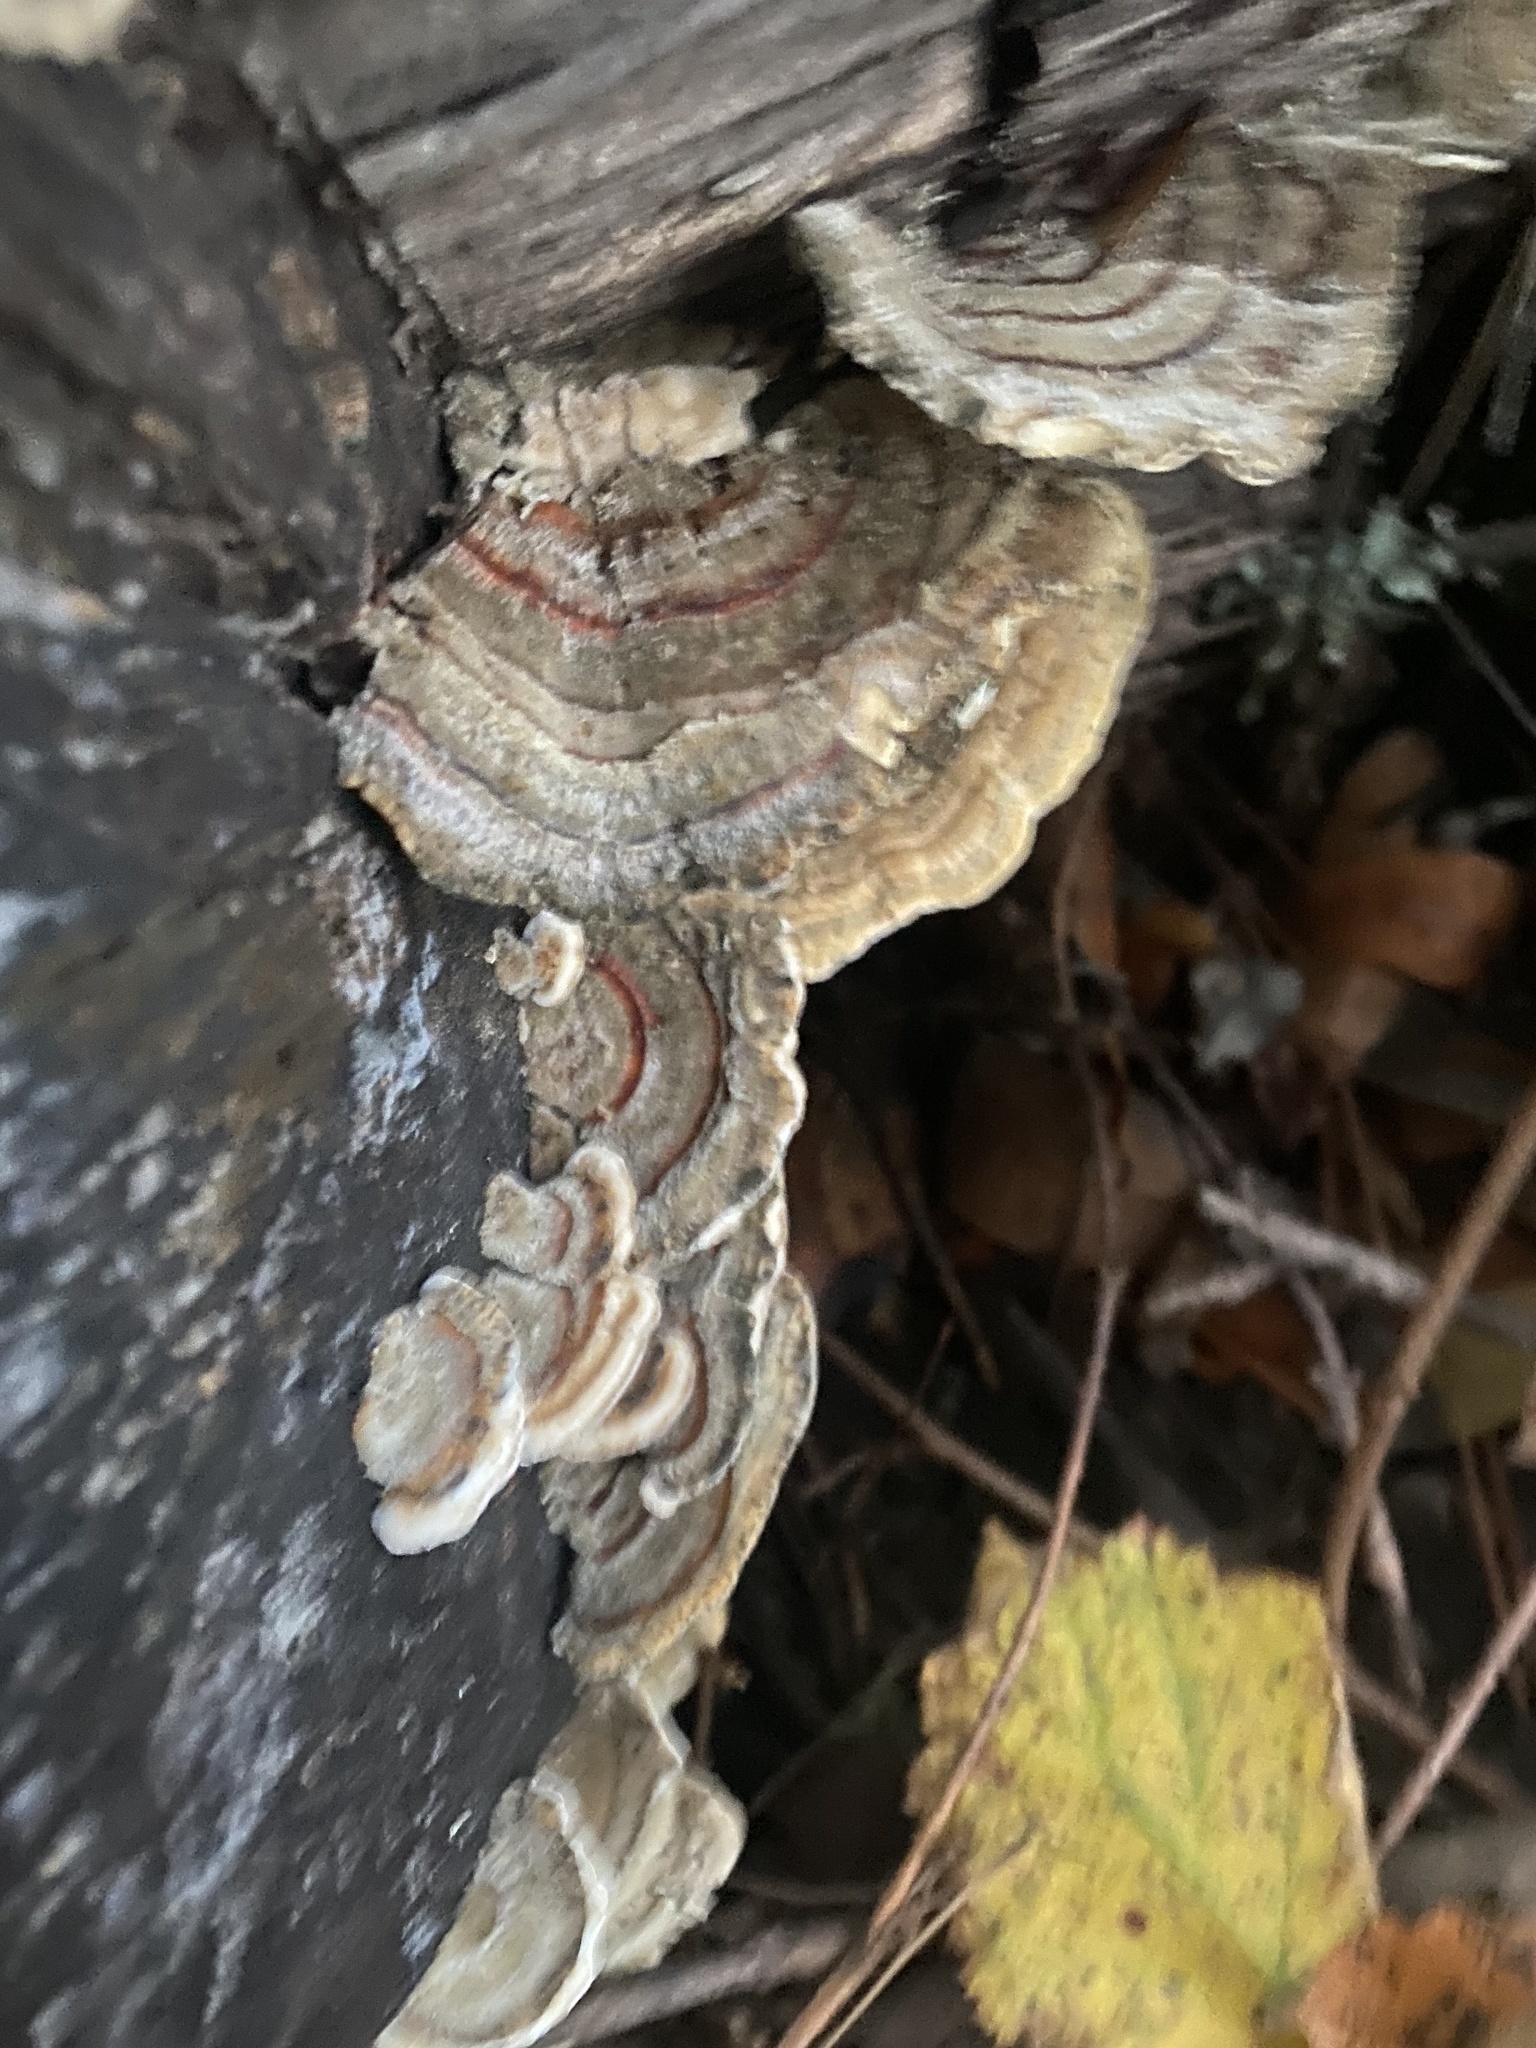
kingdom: Fungi
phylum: Basidiomycota
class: Agaricomycetes
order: Polyporales
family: Polyporaceae
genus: Trametes
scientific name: Trametes versicolor
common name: Turkeytail
